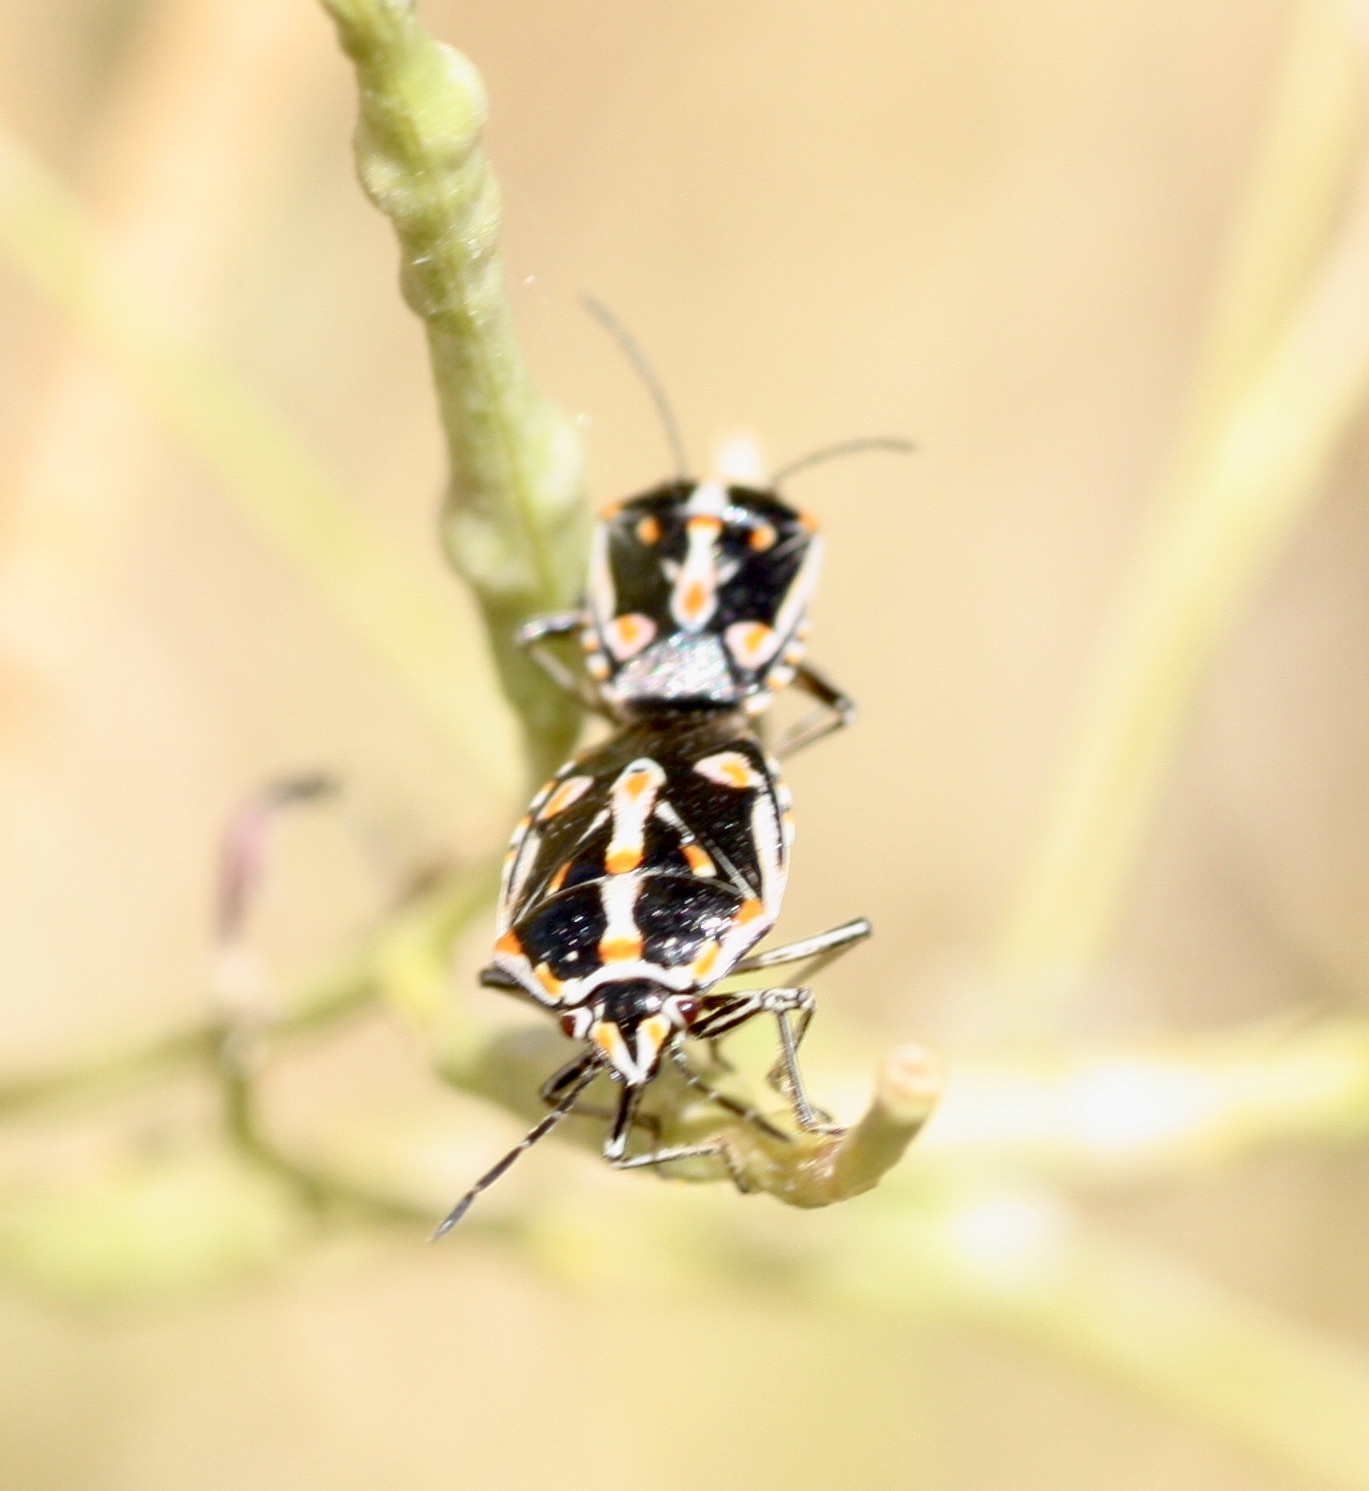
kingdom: Animalia
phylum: Arthropoda
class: Insecta
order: Hemiptera
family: Pentatomidae
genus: Bagrada
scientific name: Bagrada hilaris
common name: Bagrada bug
